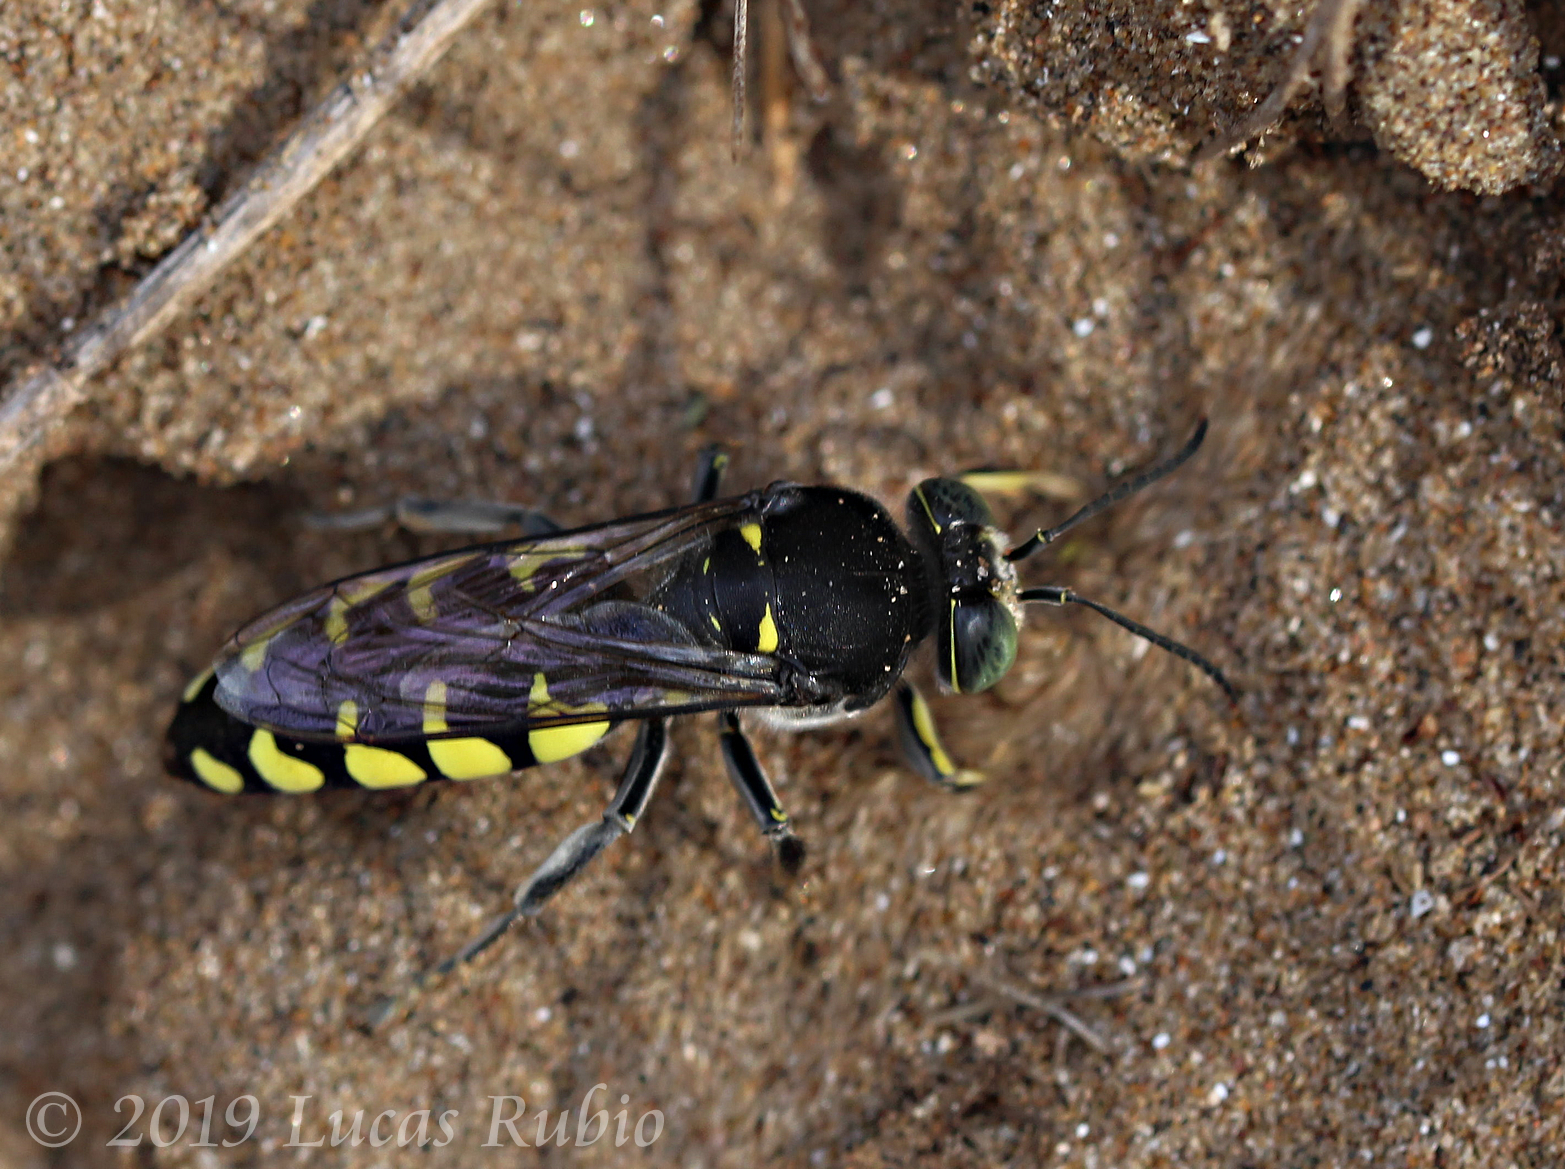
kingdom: Animalia
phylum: Arthropoda
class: Insecta
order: Hymenoptera
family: Crabronidae
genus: Stictia
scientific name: Stictia flexuosa
